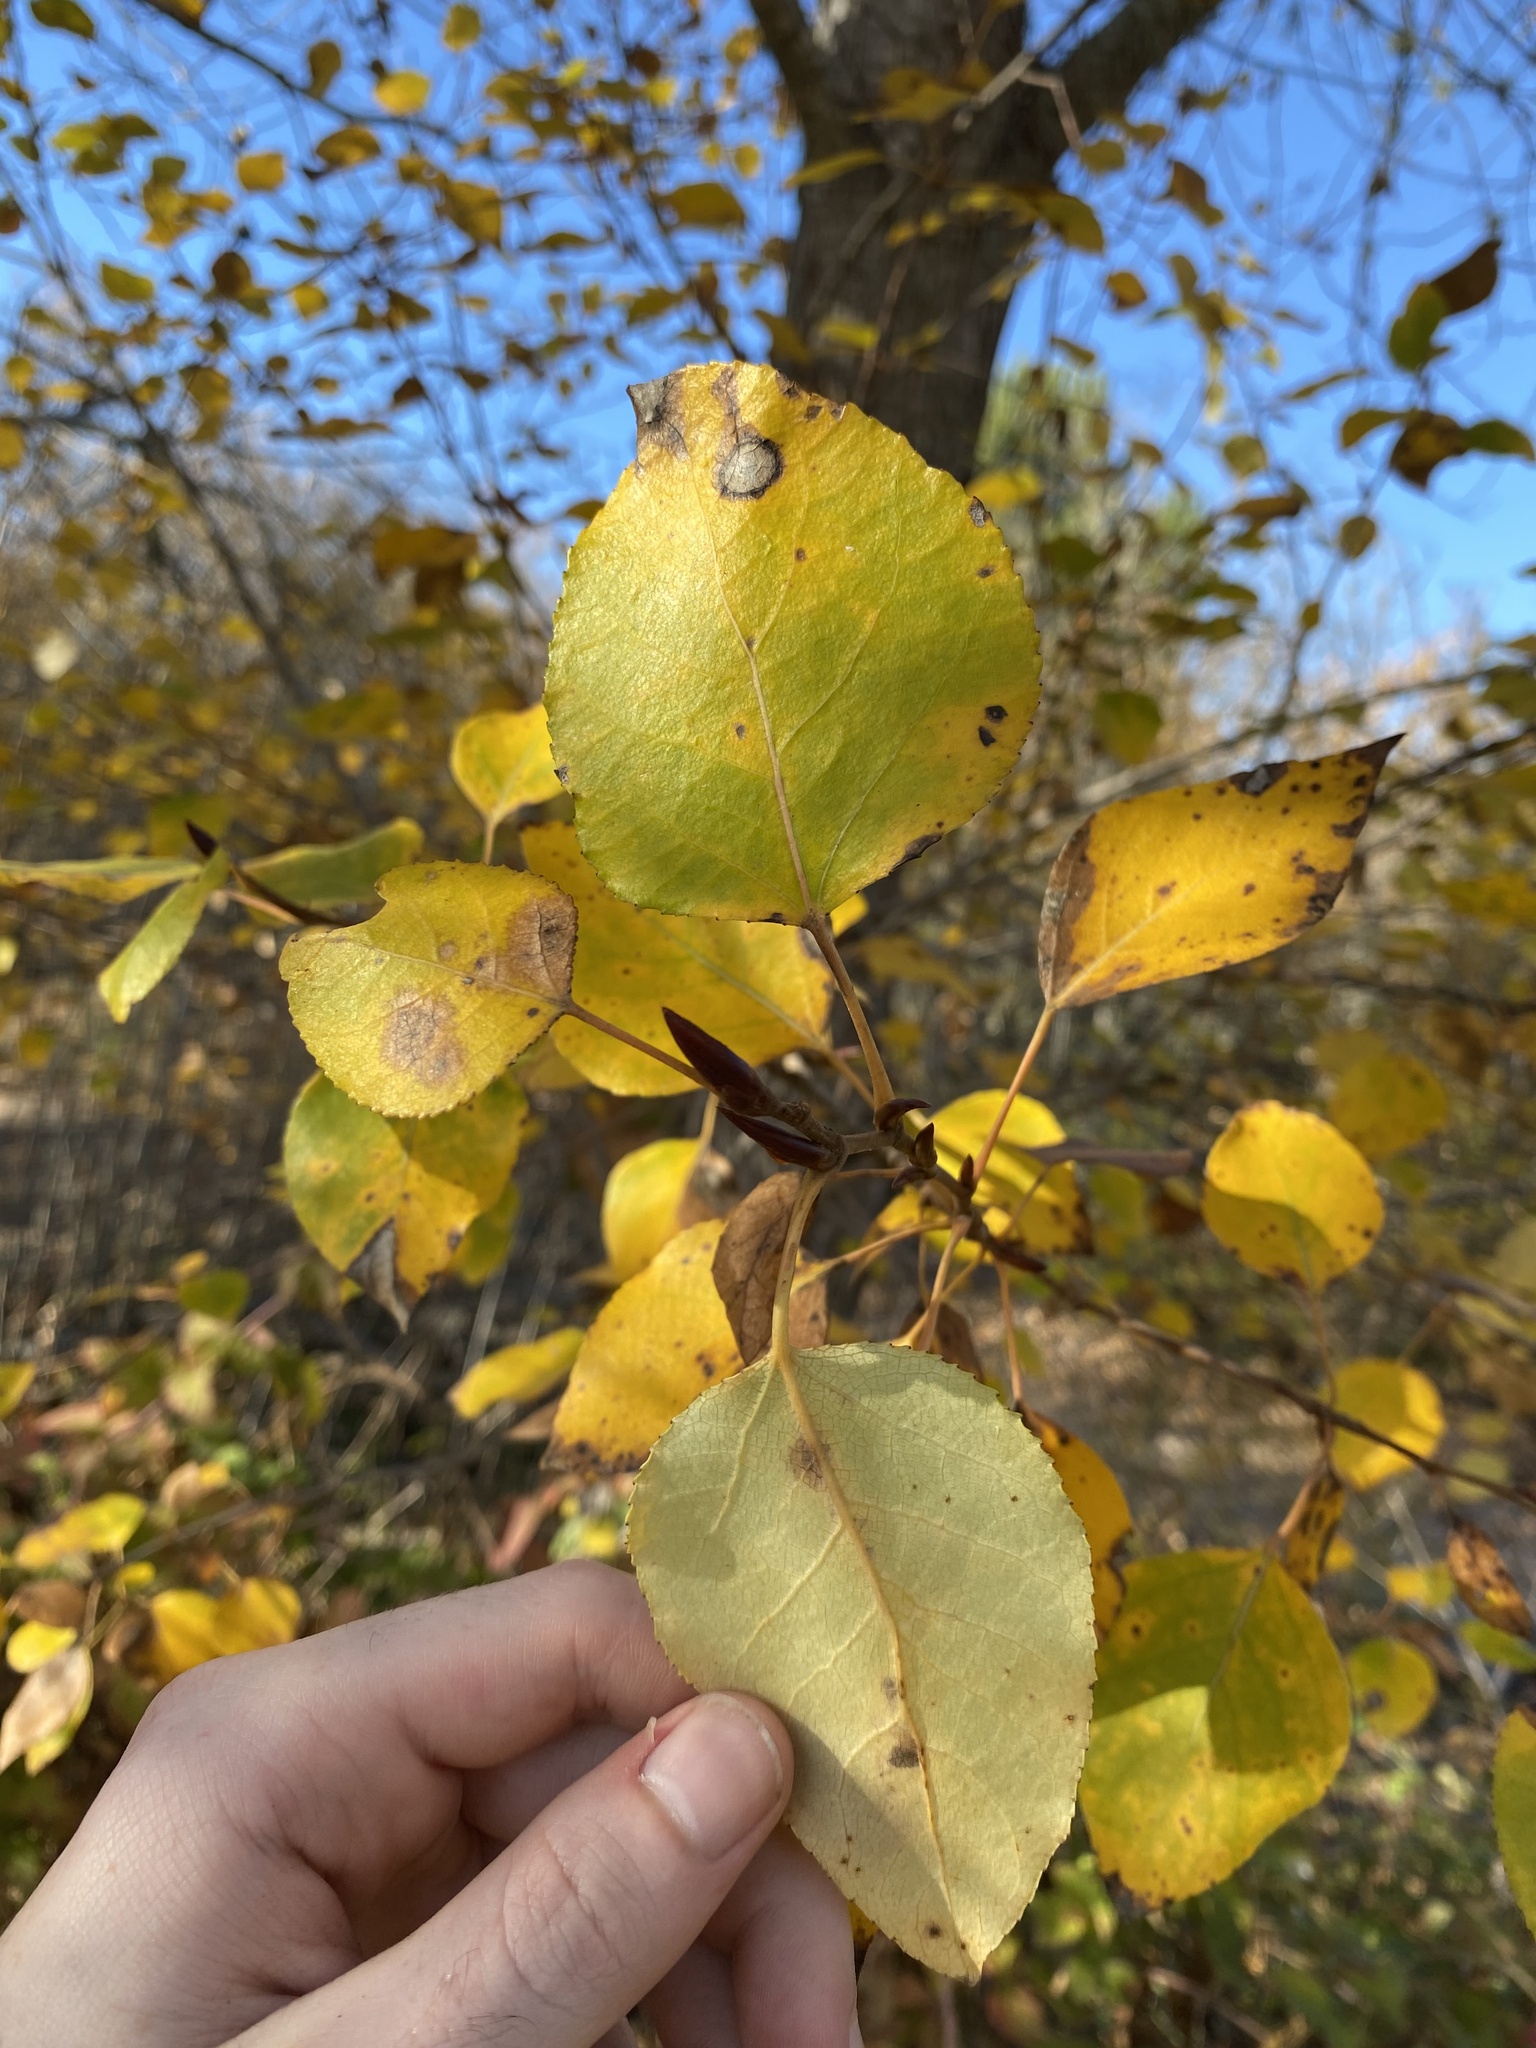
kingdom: Plantae
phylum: Tracheophyta
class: Magnoliopsida
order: Malpighiales
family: Salicaceae
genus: Populus
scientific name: Populus trichocarpa
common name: Black cottonwood
